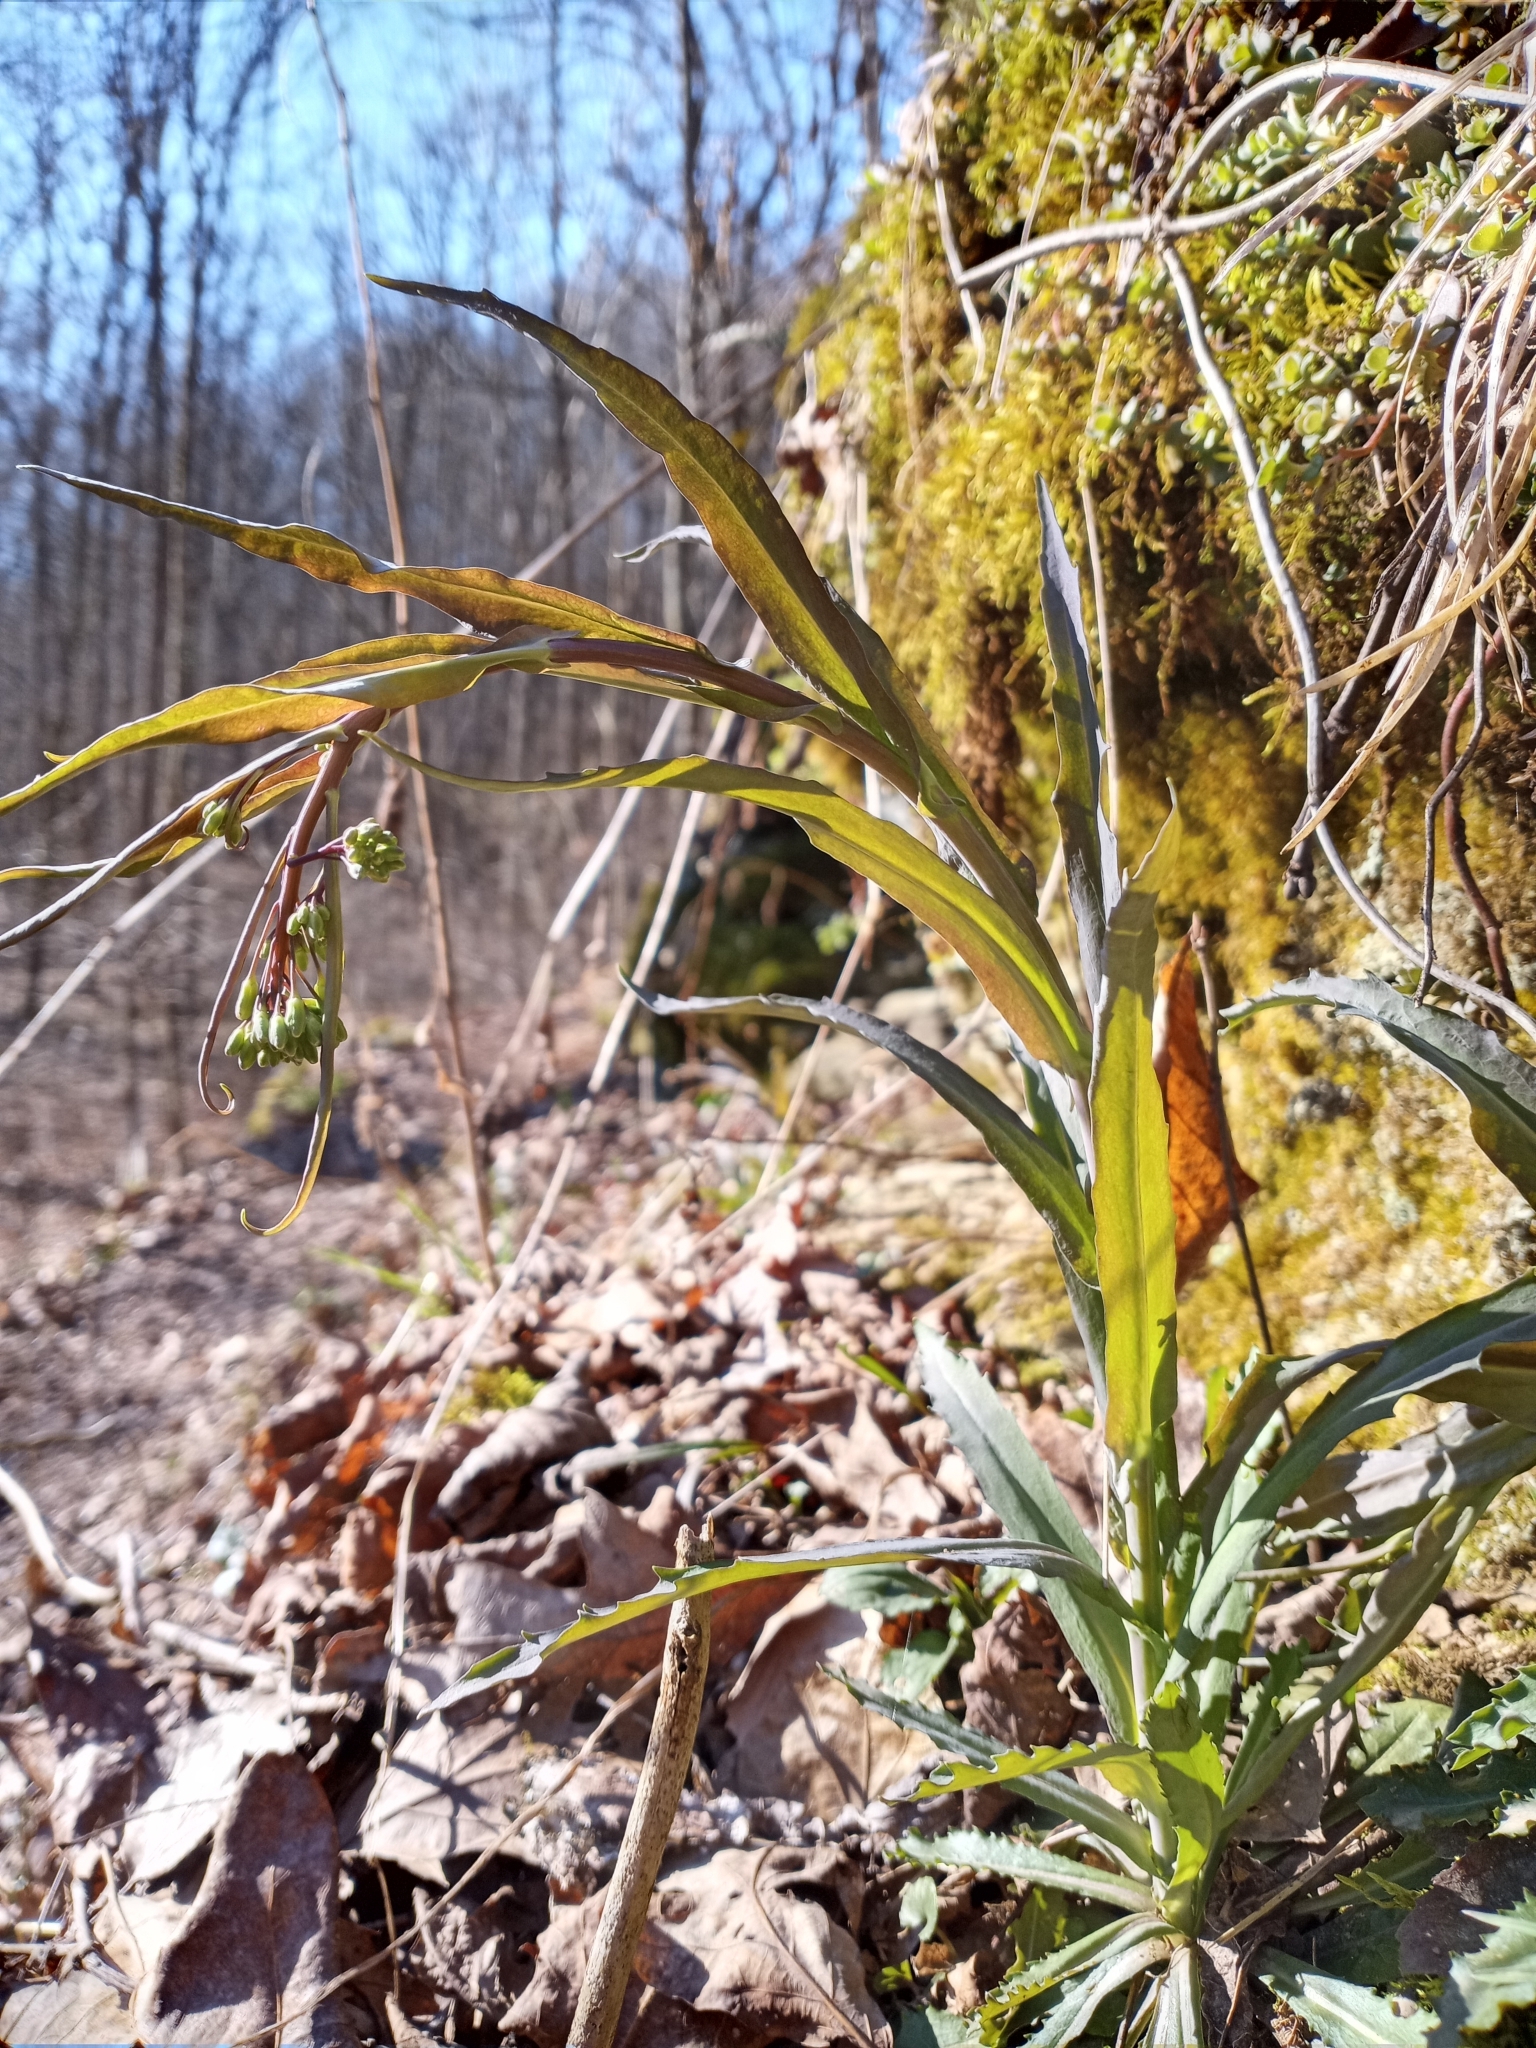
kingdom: Plantae
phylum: Tracheophyta
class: Magnoliopsida
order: Brassicales
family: Brassicaceae
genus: Borodinia
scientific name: Borodinia laevigata
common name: Smooth rockcress
